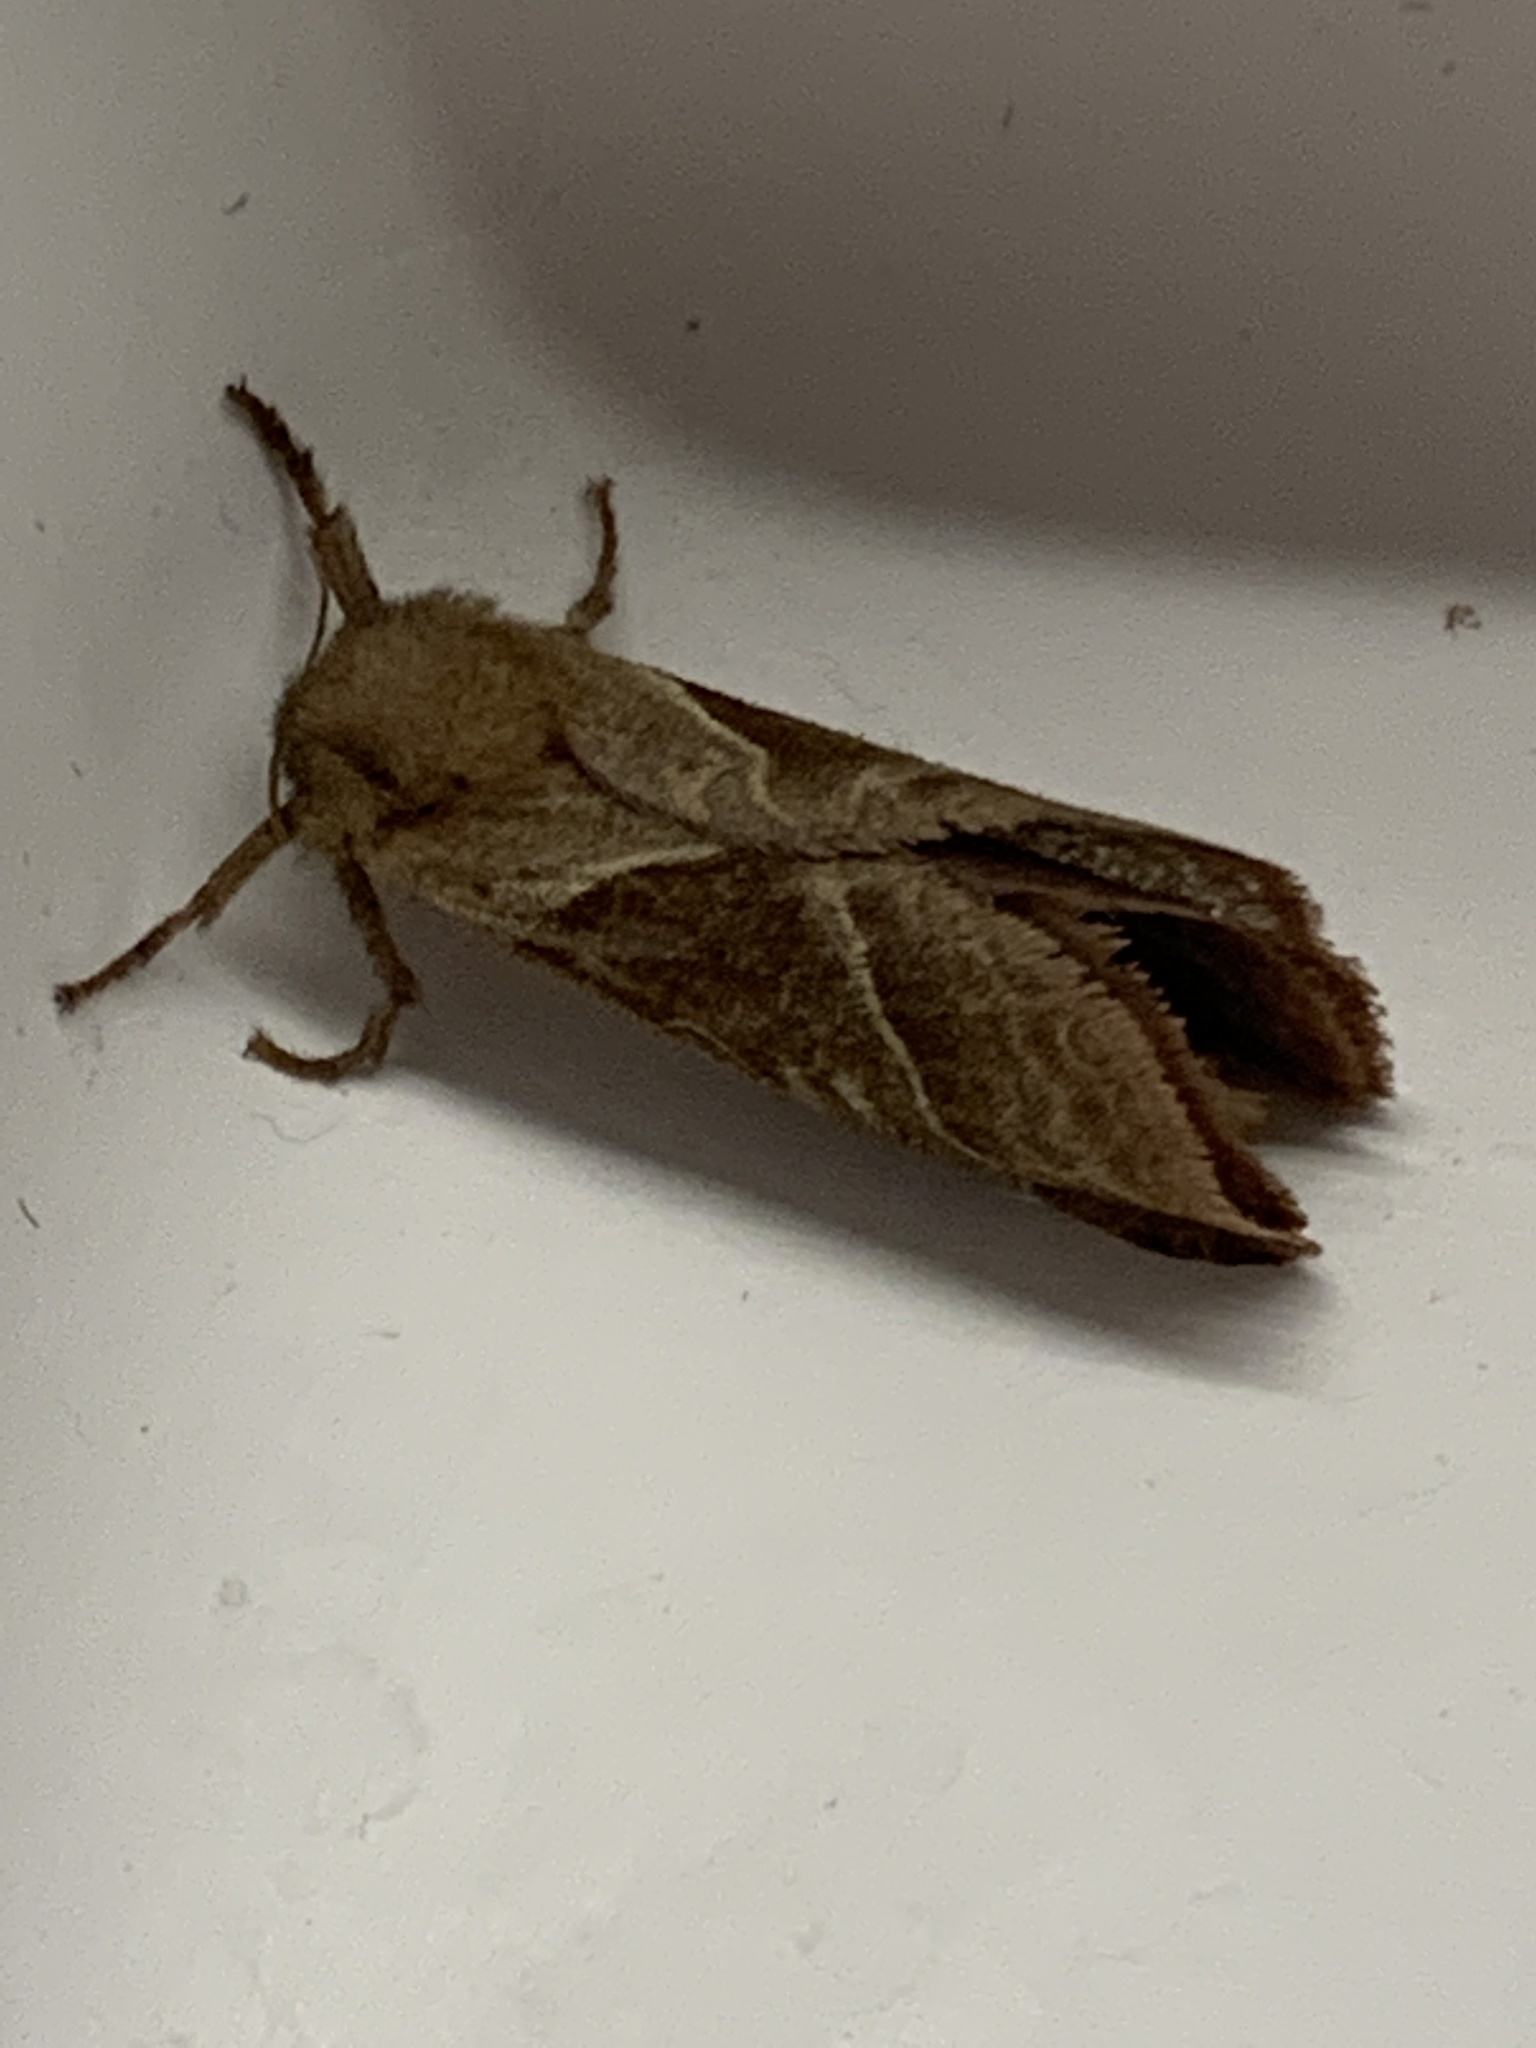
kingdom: Animalia
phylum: Arthropoda
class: Insecta
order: Lepidoptera
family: Hepialidae
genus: Triodia
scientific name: Triodia sylvina
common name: Orange swift
